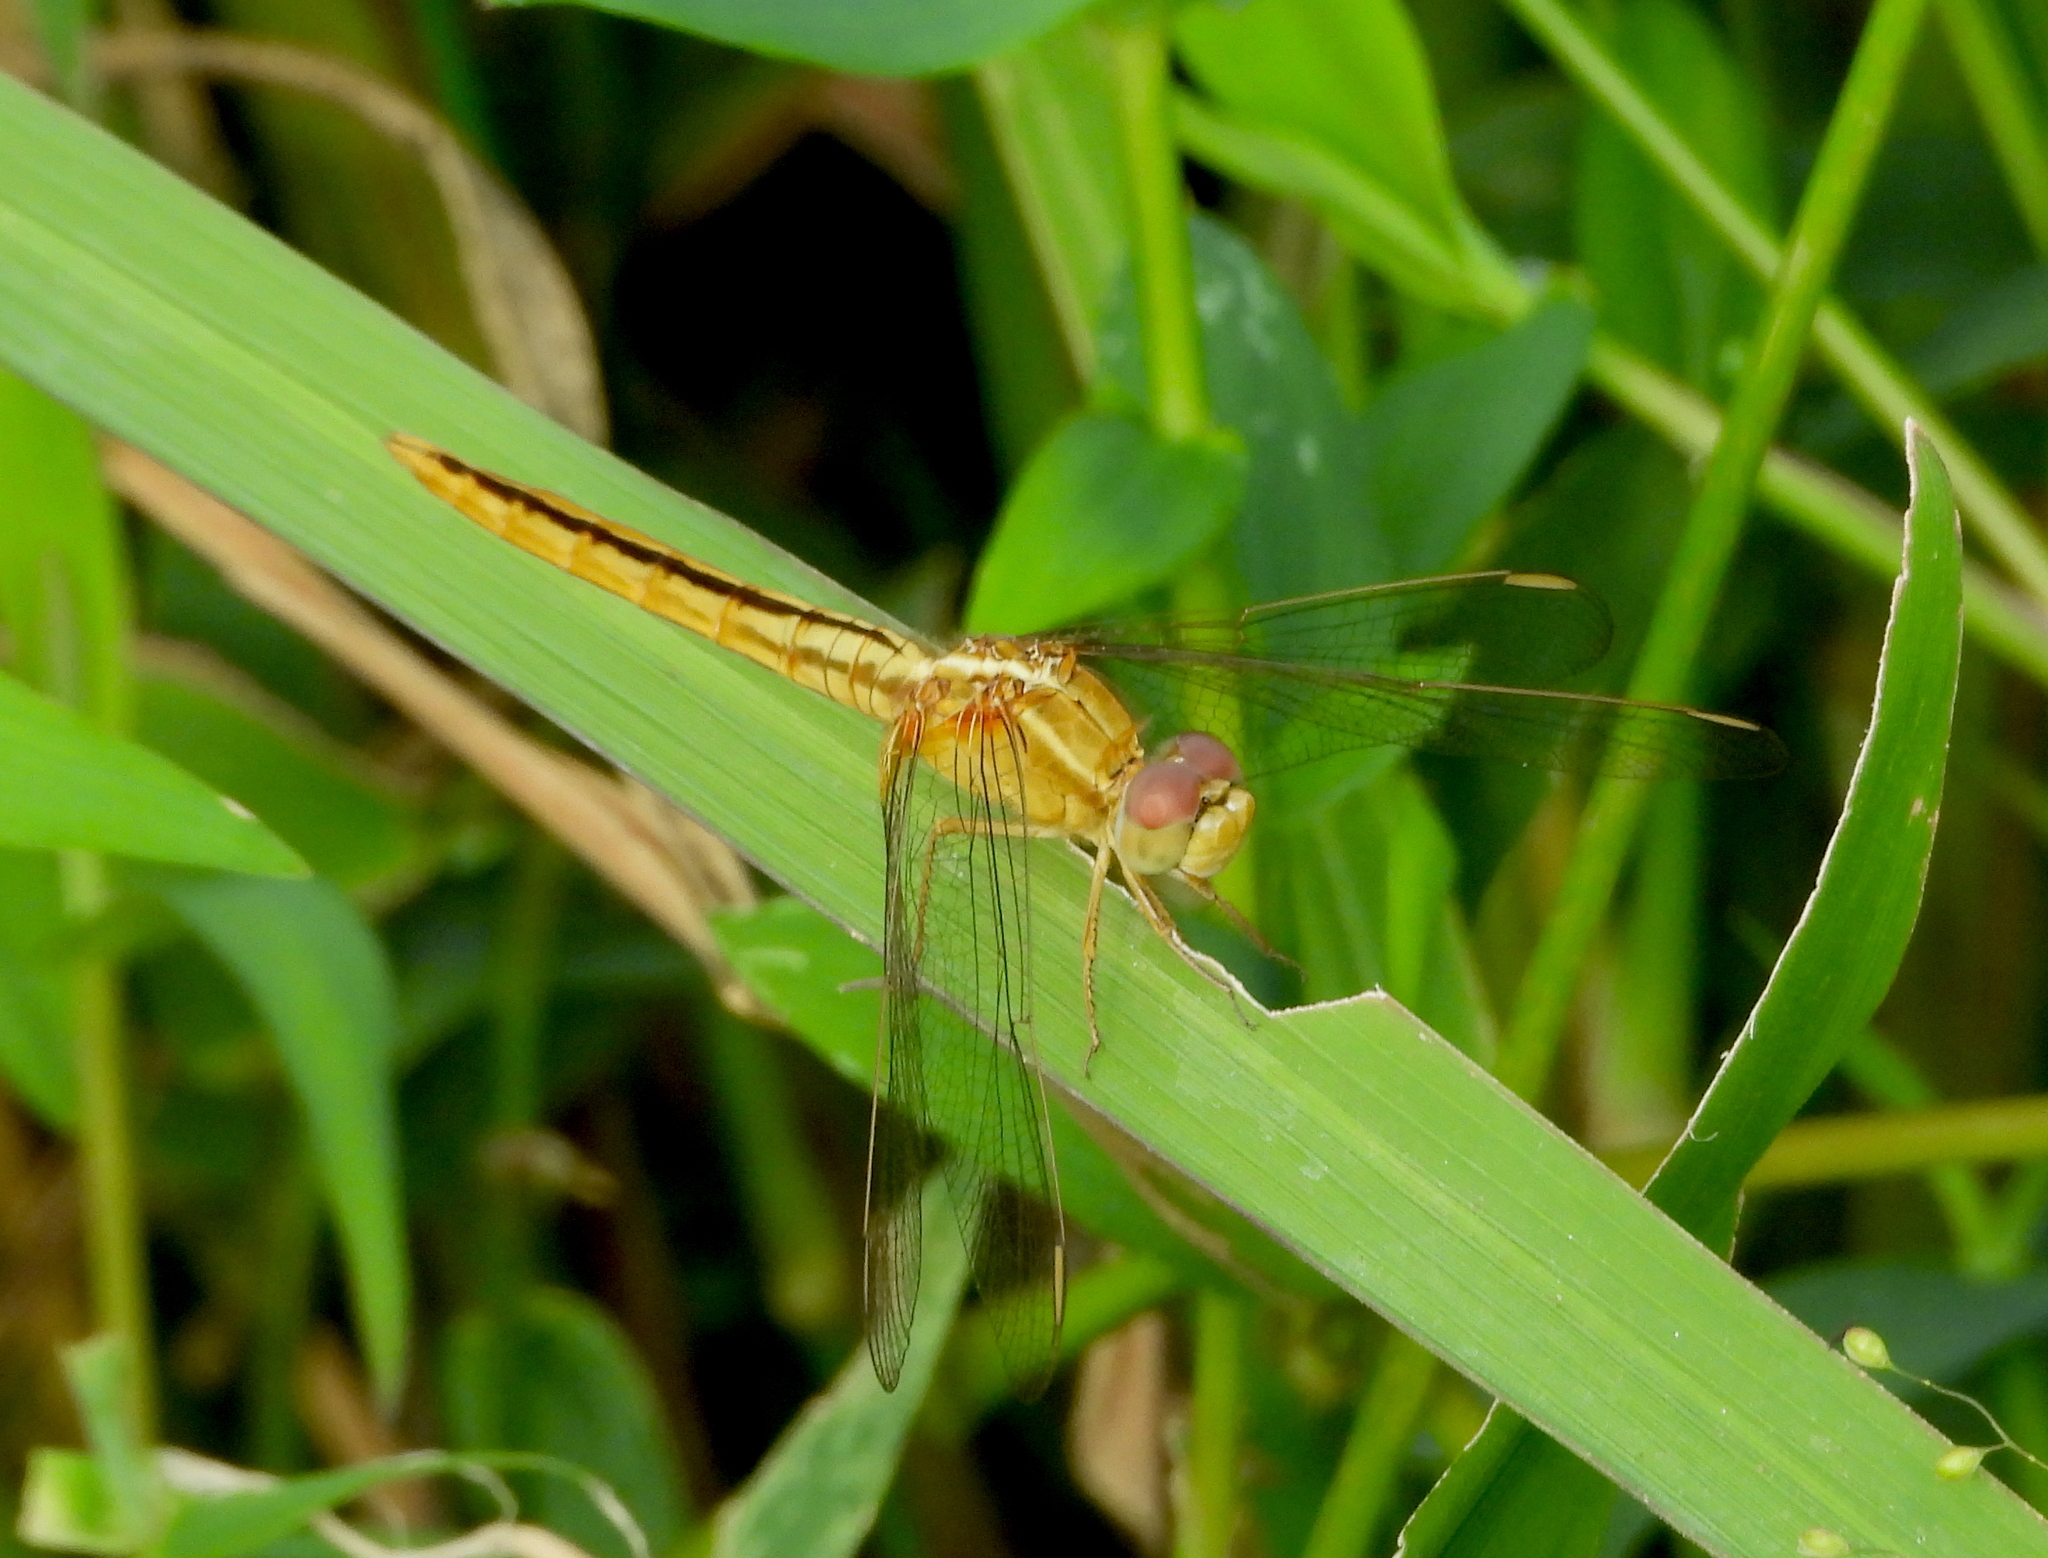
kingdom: Animalia
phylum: Arthropoda
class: Insecta
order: Odonata
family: Libellulidae
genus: Crocothemis
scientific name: Crocothemis servilia
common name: Scarlet skimmer
